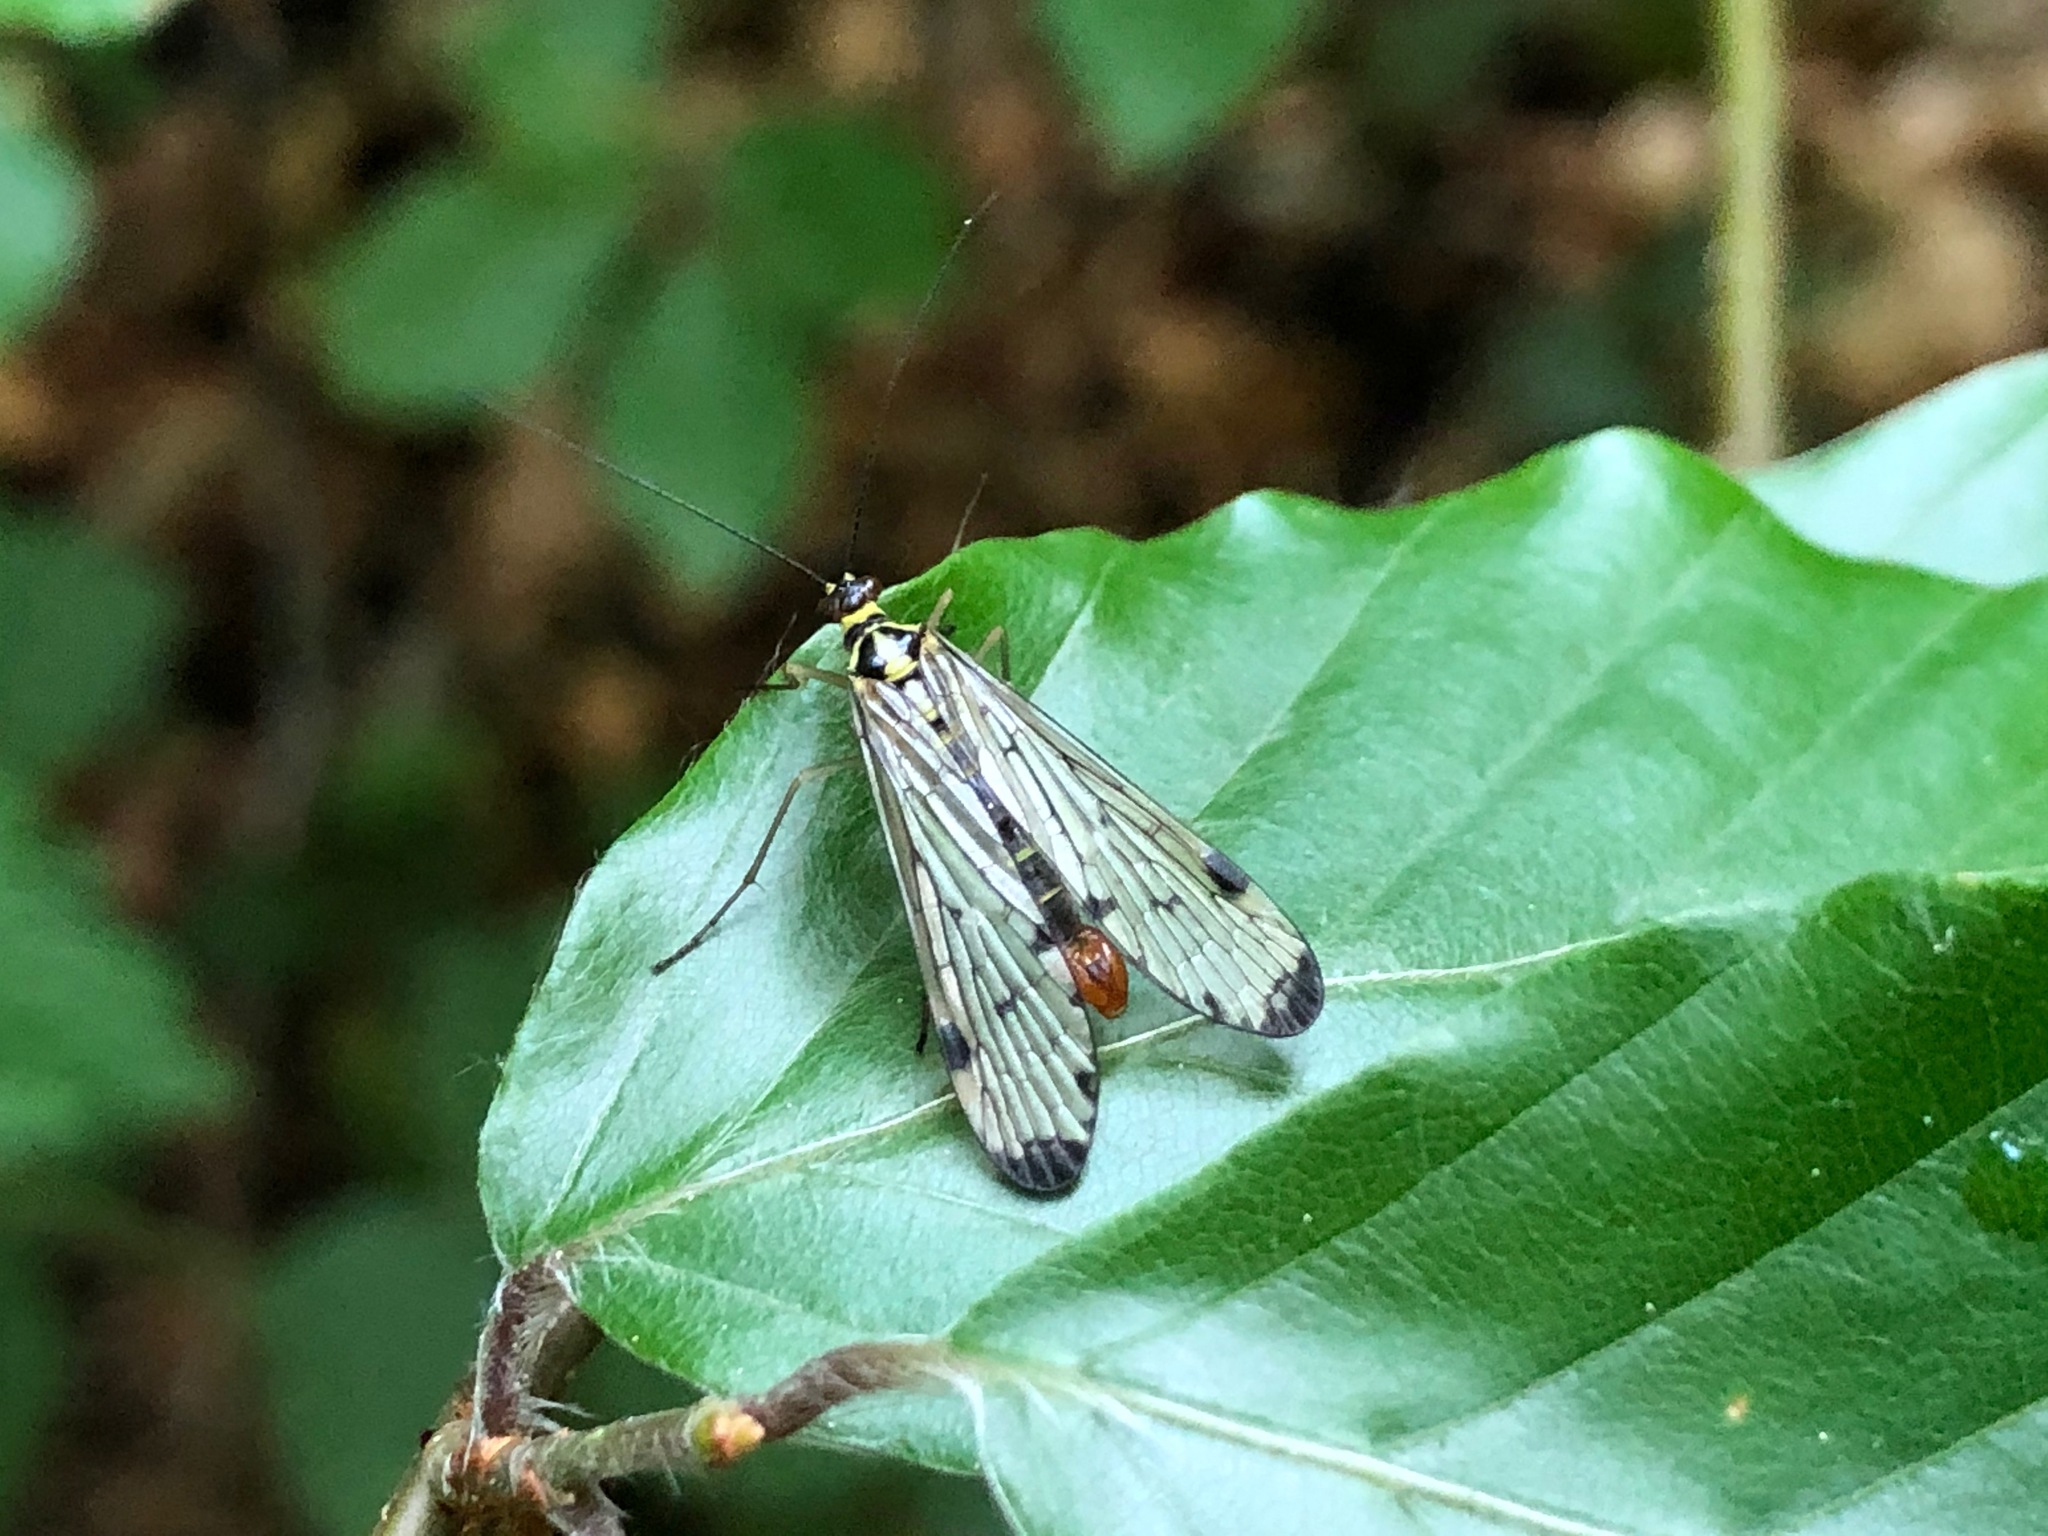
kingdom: Animalia
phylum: Arthropoda
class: Insecta
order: Mecoptera
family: Panorpidae
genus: Panorpa
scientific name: Panorpa germanica
